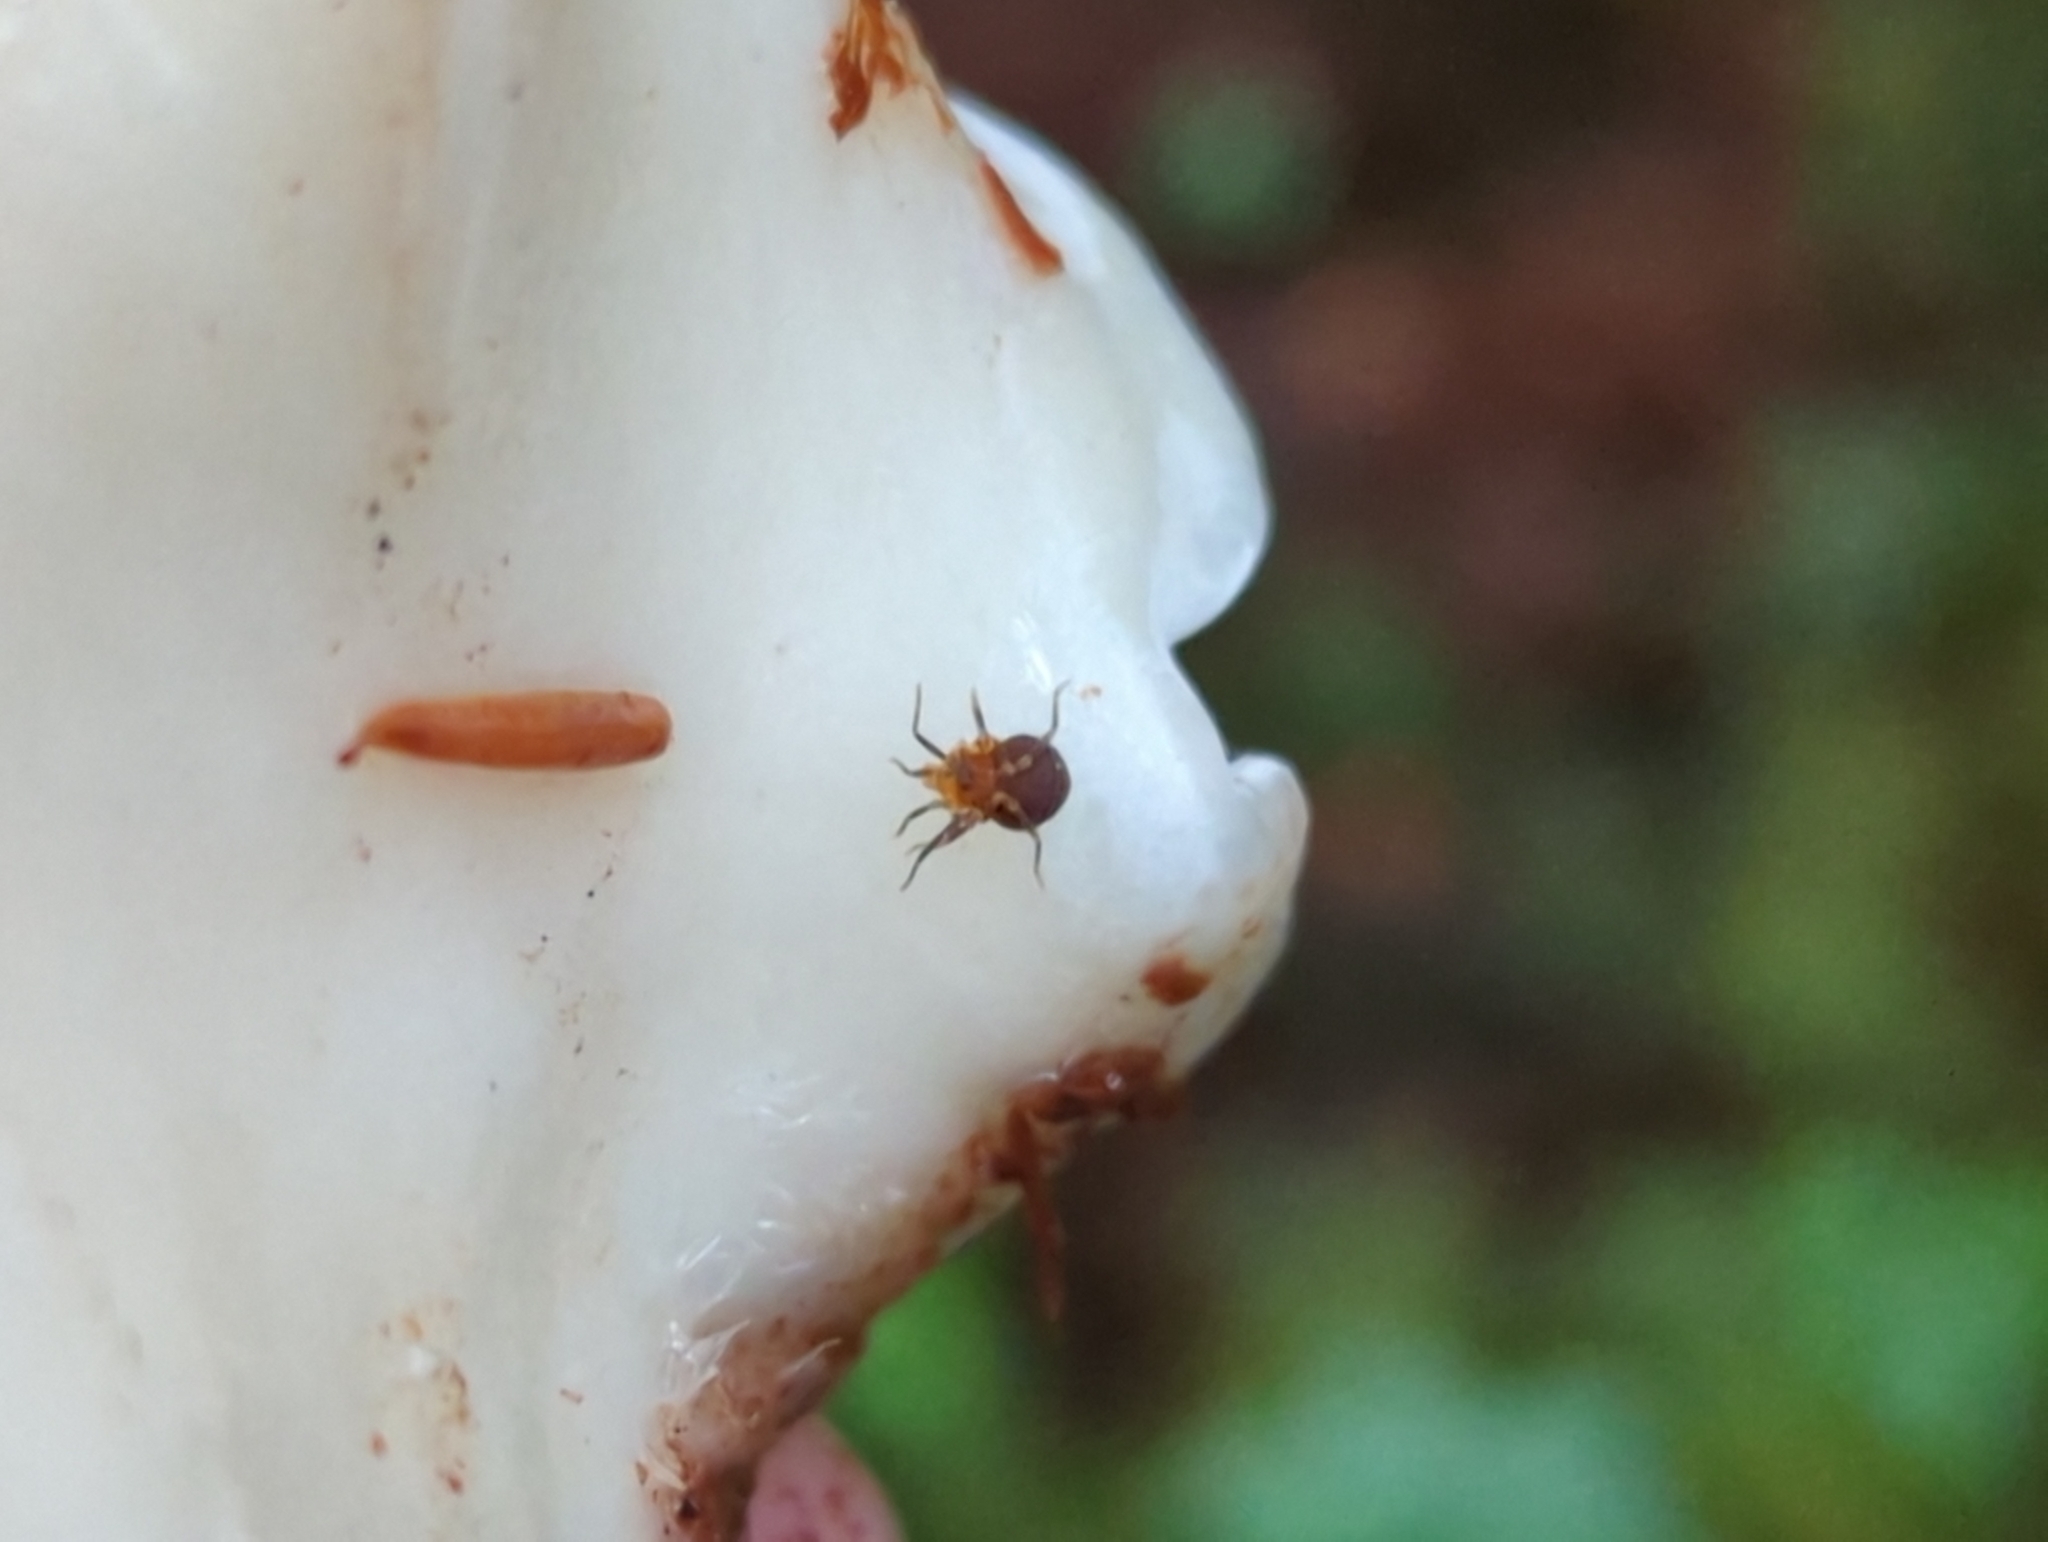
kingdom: Animalia
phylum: Arthropoda
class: Arachnida
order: Opiliones
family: Paranonychidae
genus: Paranonychus
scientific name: Paranonychus brunneus
